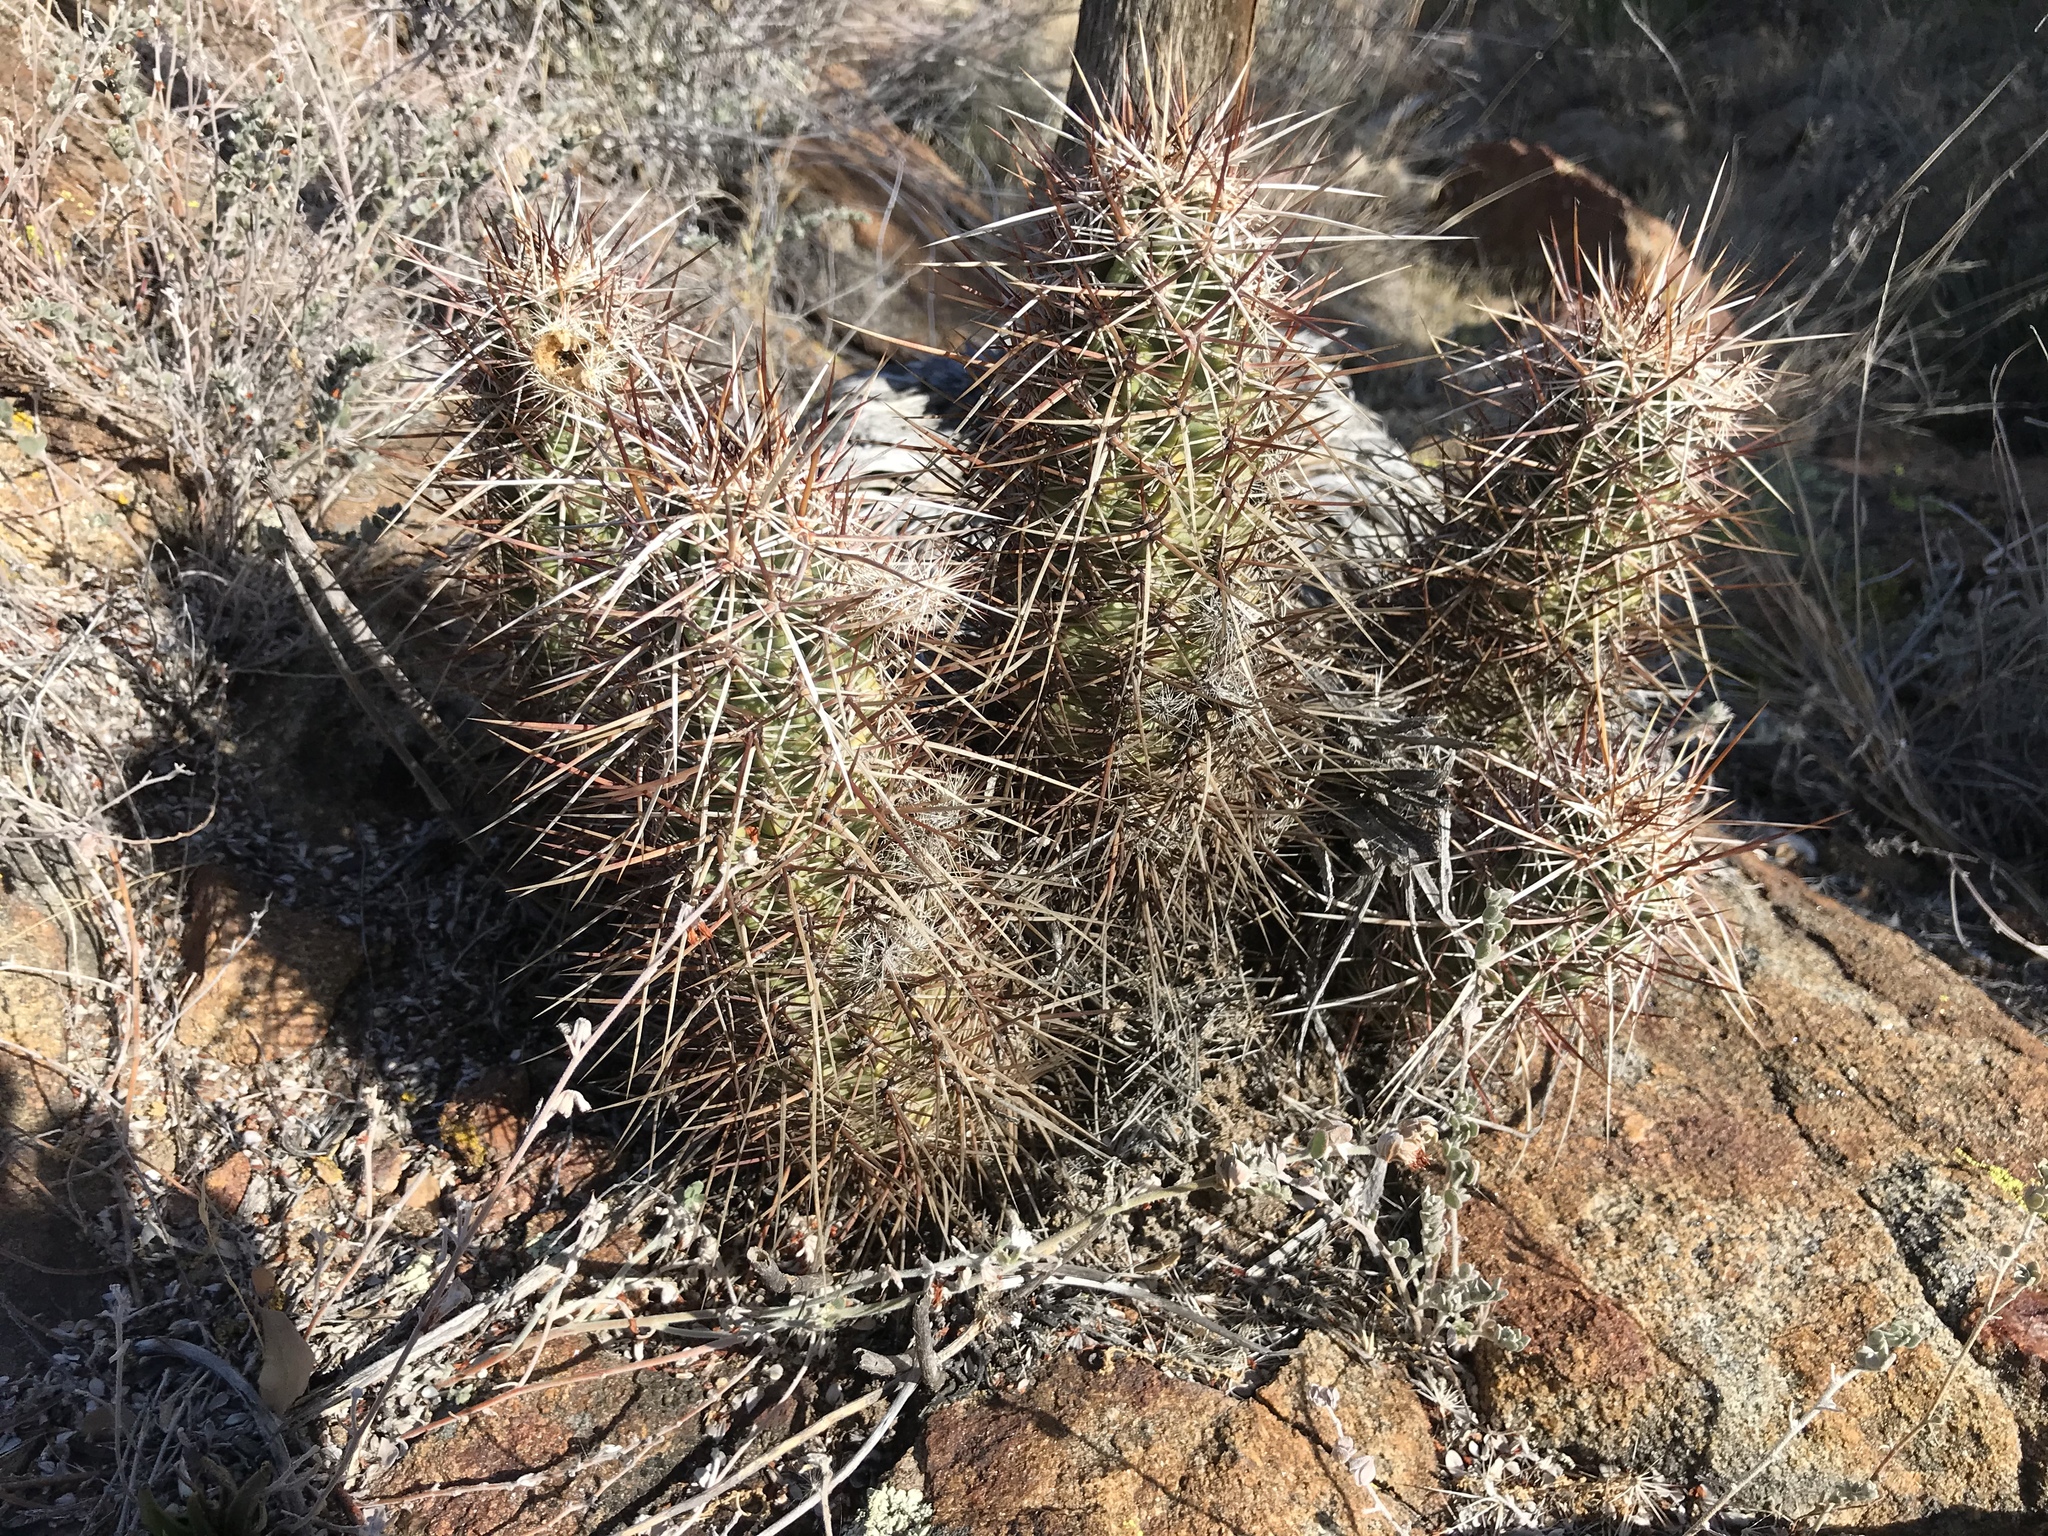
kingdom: Plantae
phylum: Tracheophyta
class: Magnoliopsida
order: Caryophyllales
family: Cactaceae
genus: Echinocereus
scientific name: Echinocereus engelmannii
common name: Engelmann's hedgehog cactus
